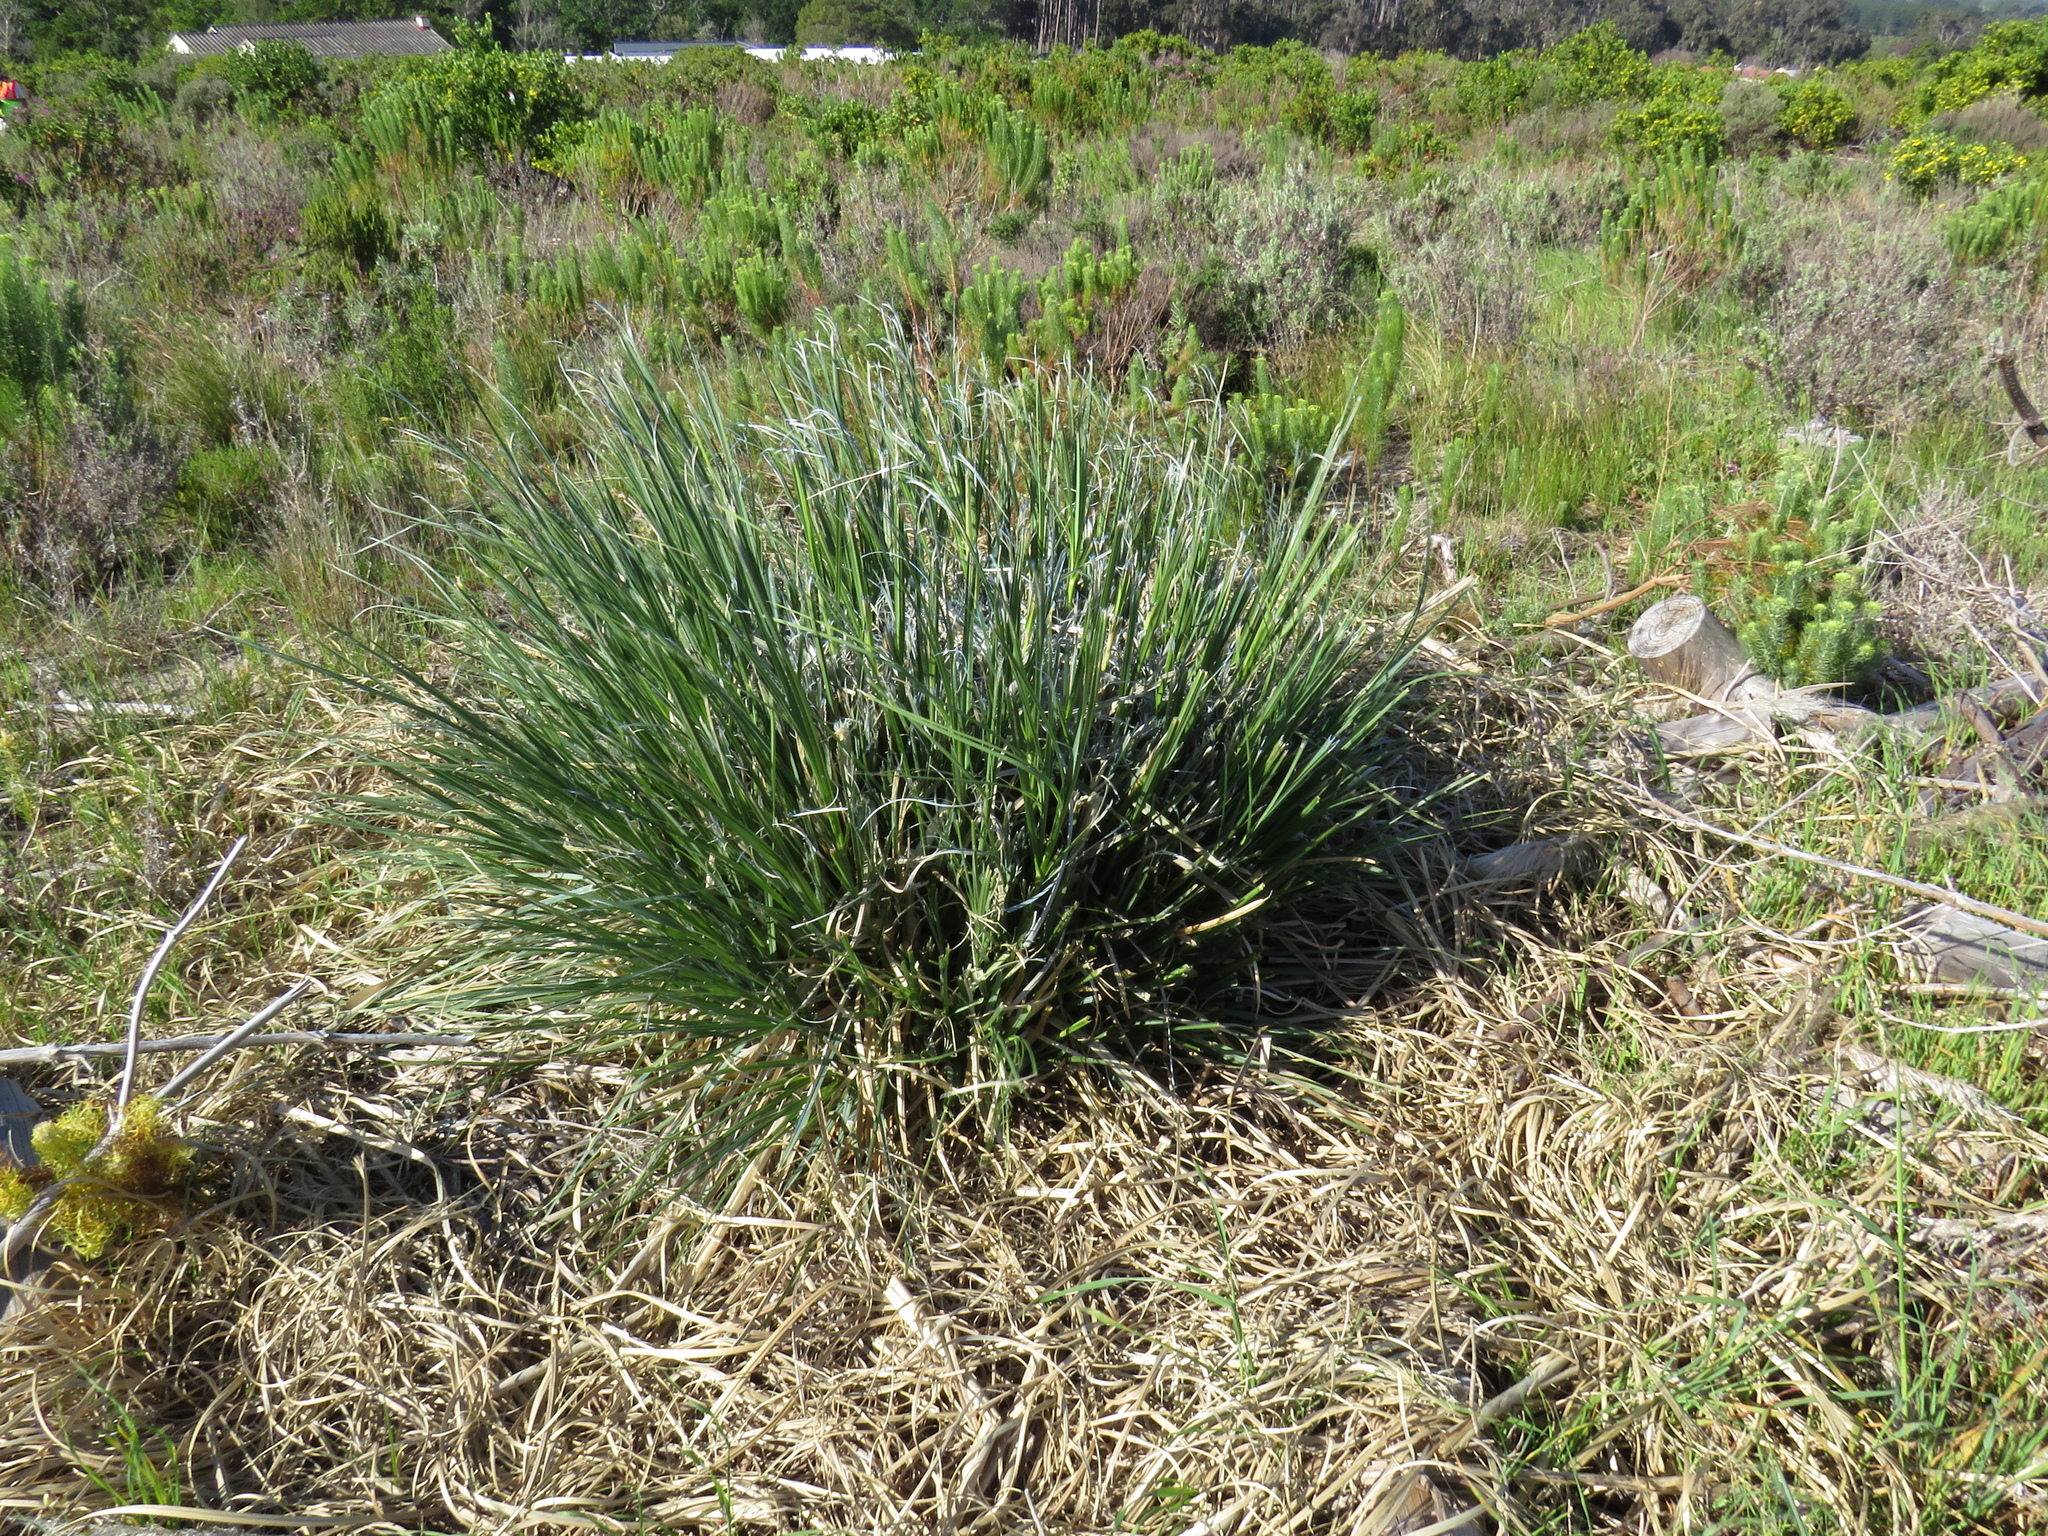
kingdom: Plantae
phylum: Tracheophyta
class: Liliopsida
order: Poales
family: Poaceae
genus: Cortaderia
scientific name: Cortaderia selloana
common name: Uruguayan pampas grass
